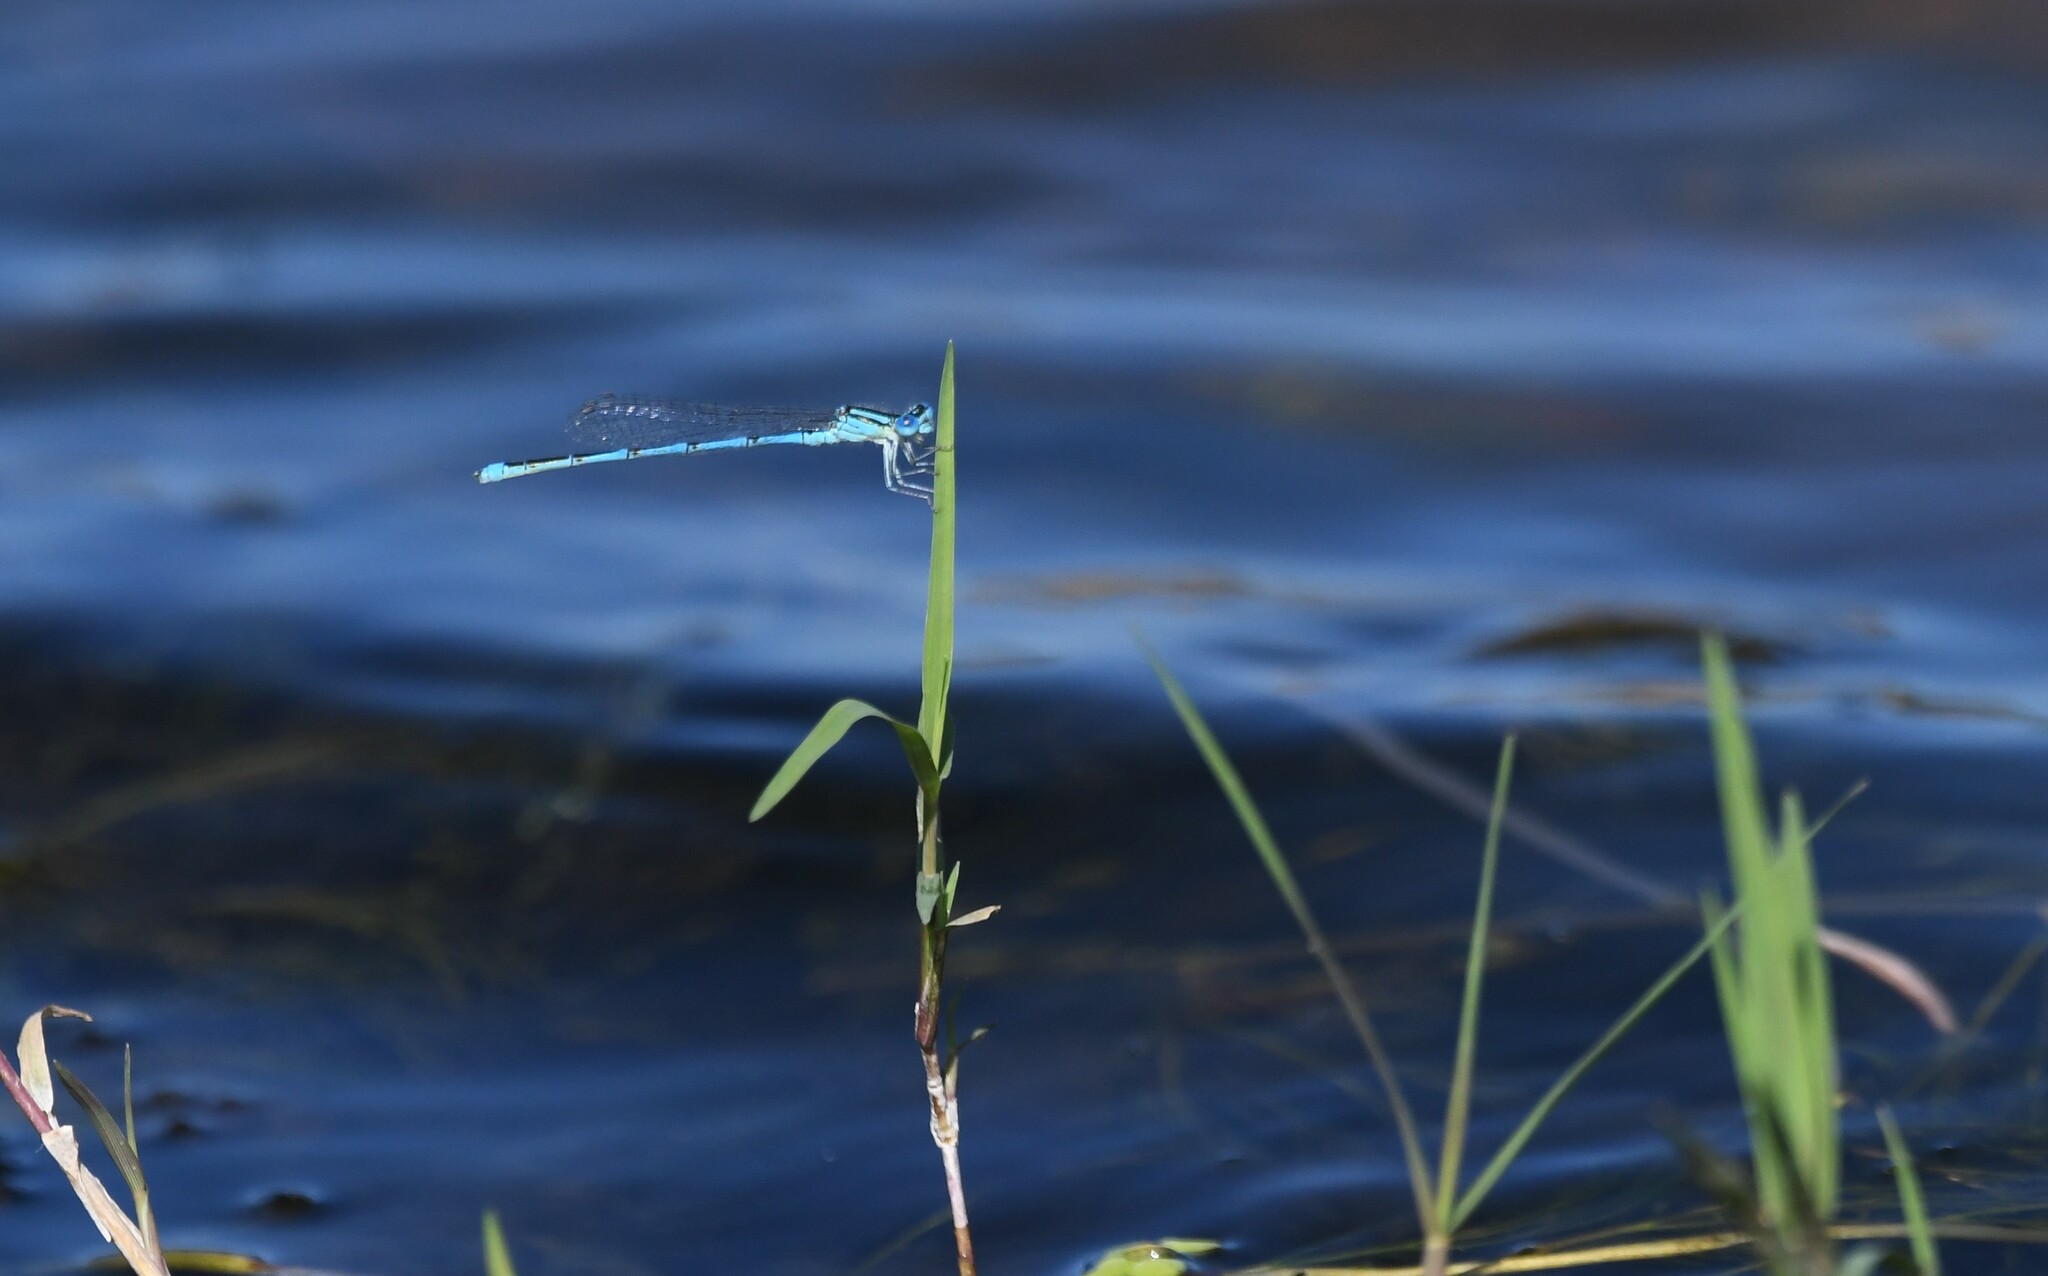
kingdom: Animalia
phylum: Arthropoda
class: Insecta
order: Odonata
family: Coenagrionidae
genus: Erythromma
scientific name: Erythromma lindenii
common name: Blue-eye
